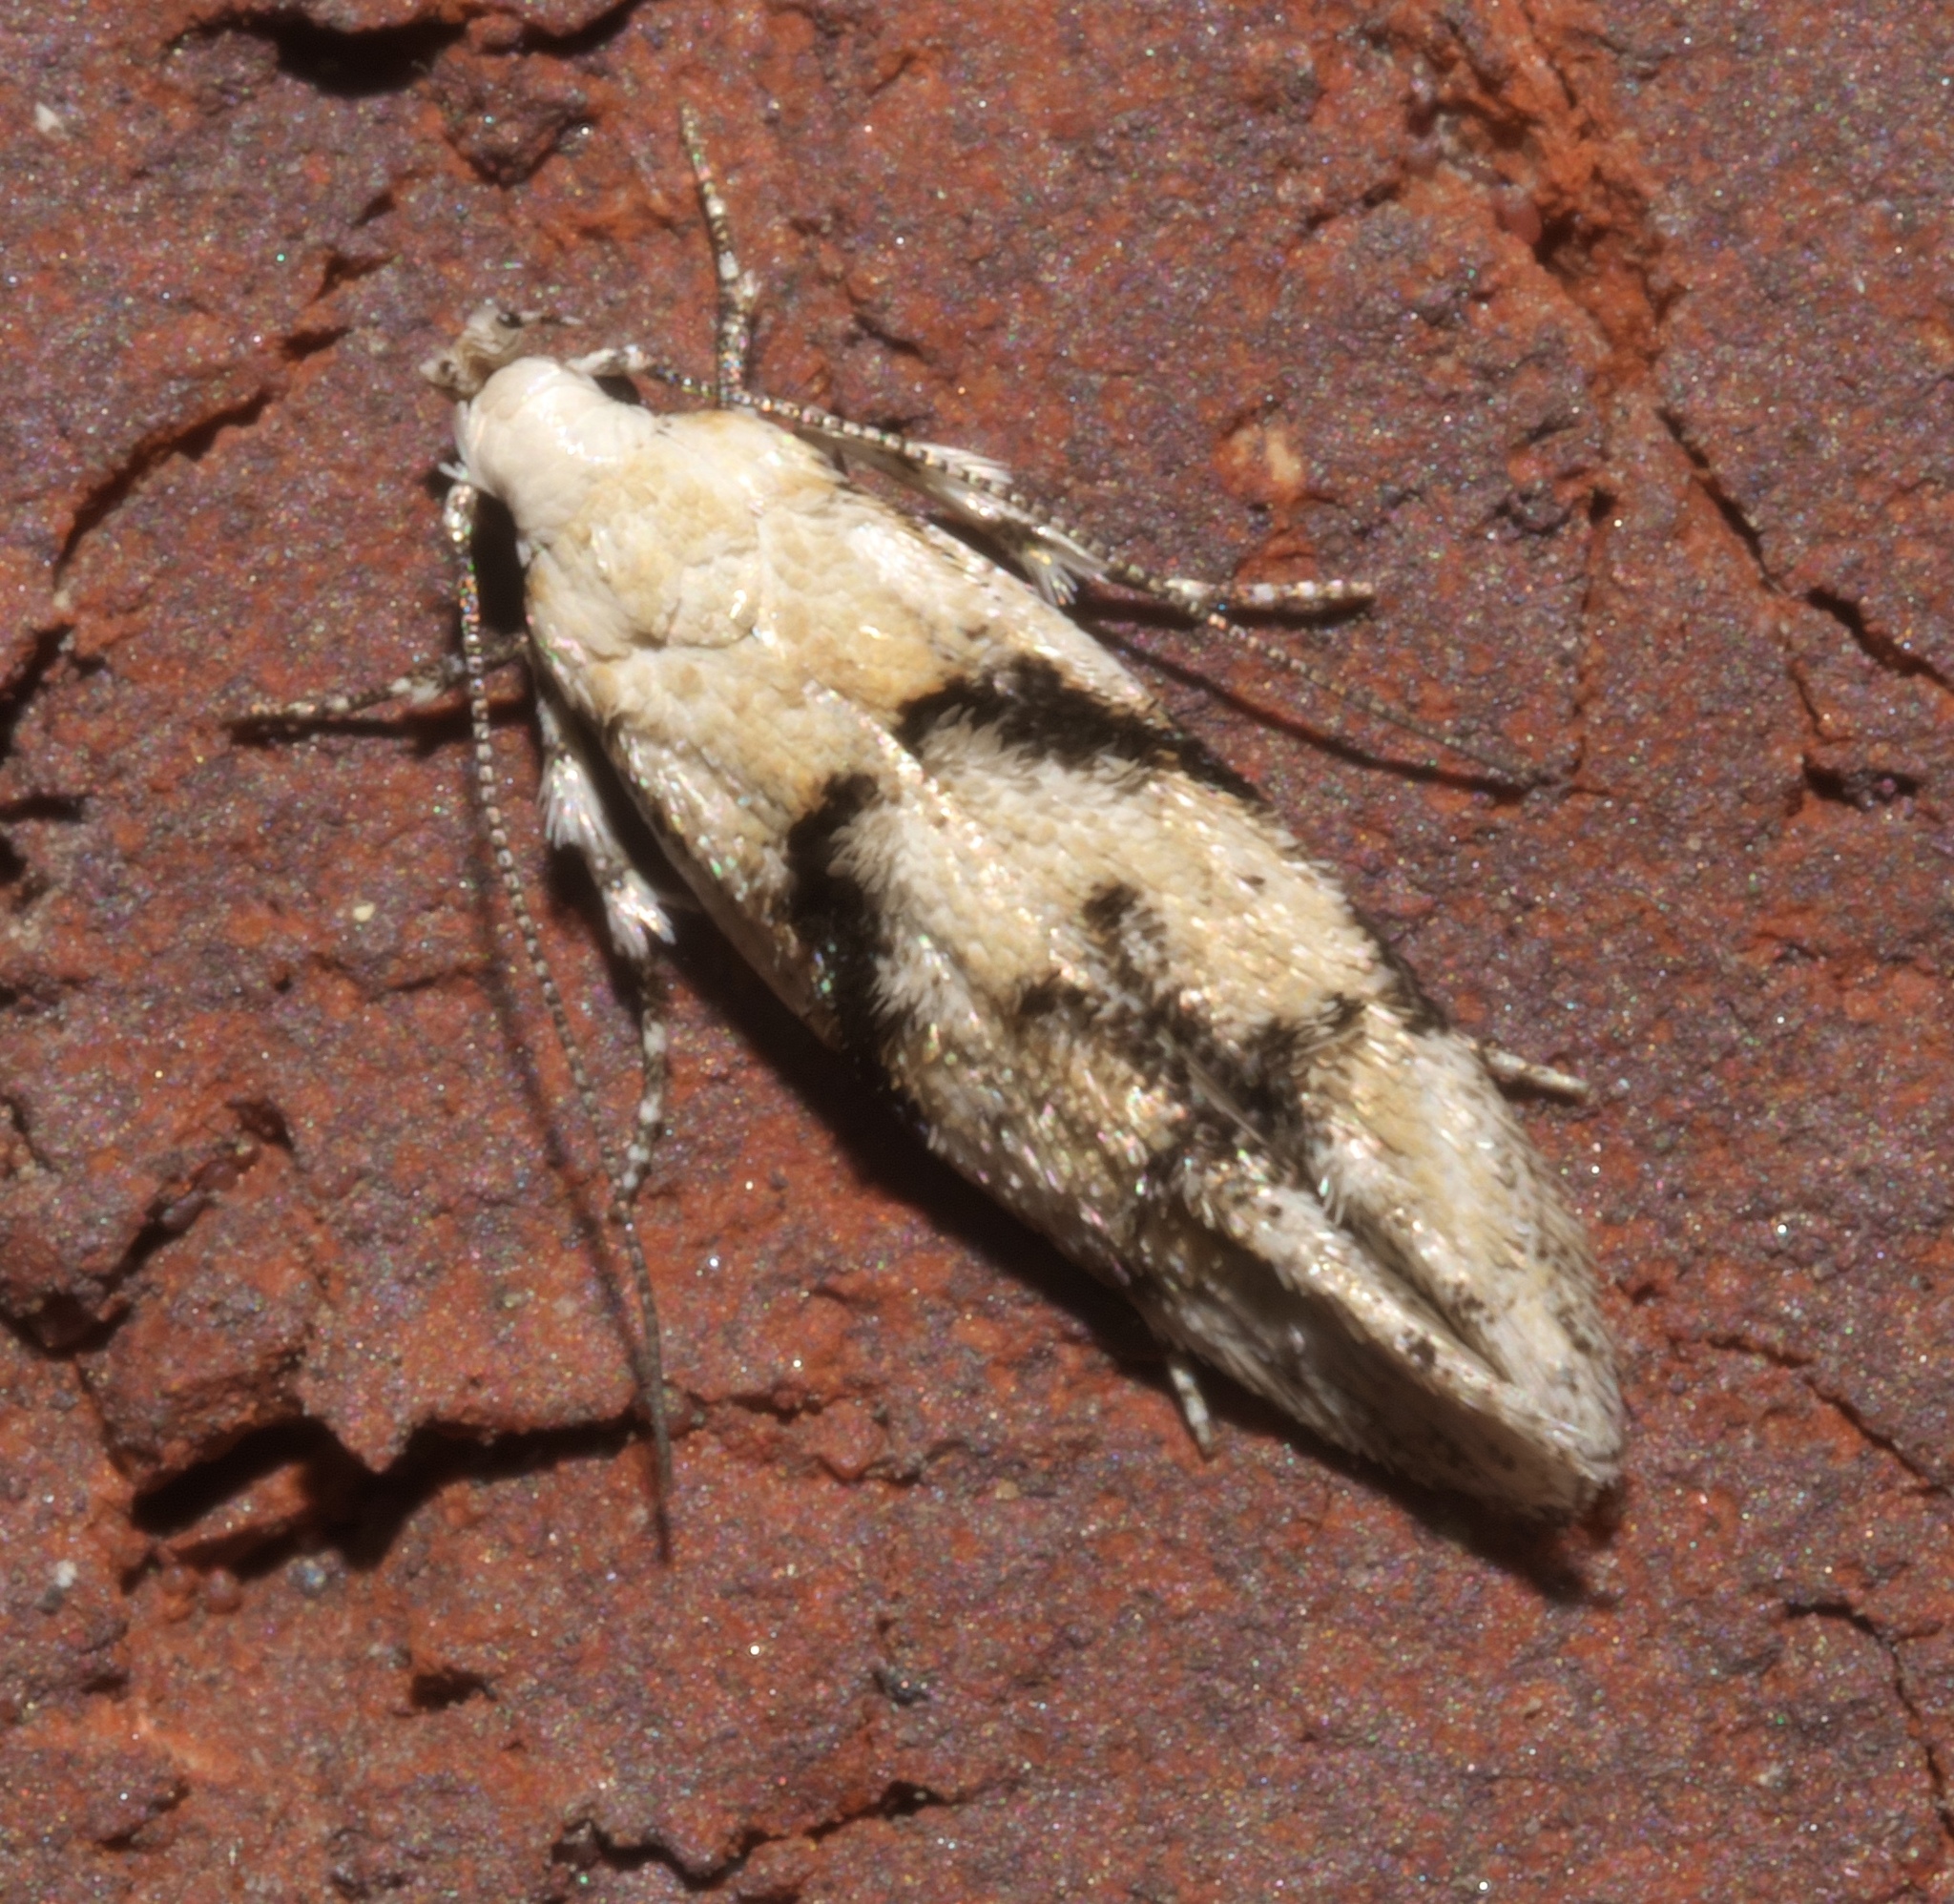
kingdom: Animalia
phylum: Arthropoda
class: Insecta
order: Lepidoptera
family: Gelechiidae
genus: Arogalea
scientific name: Arogalea cristifasciella
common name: White stripe-backed moth
